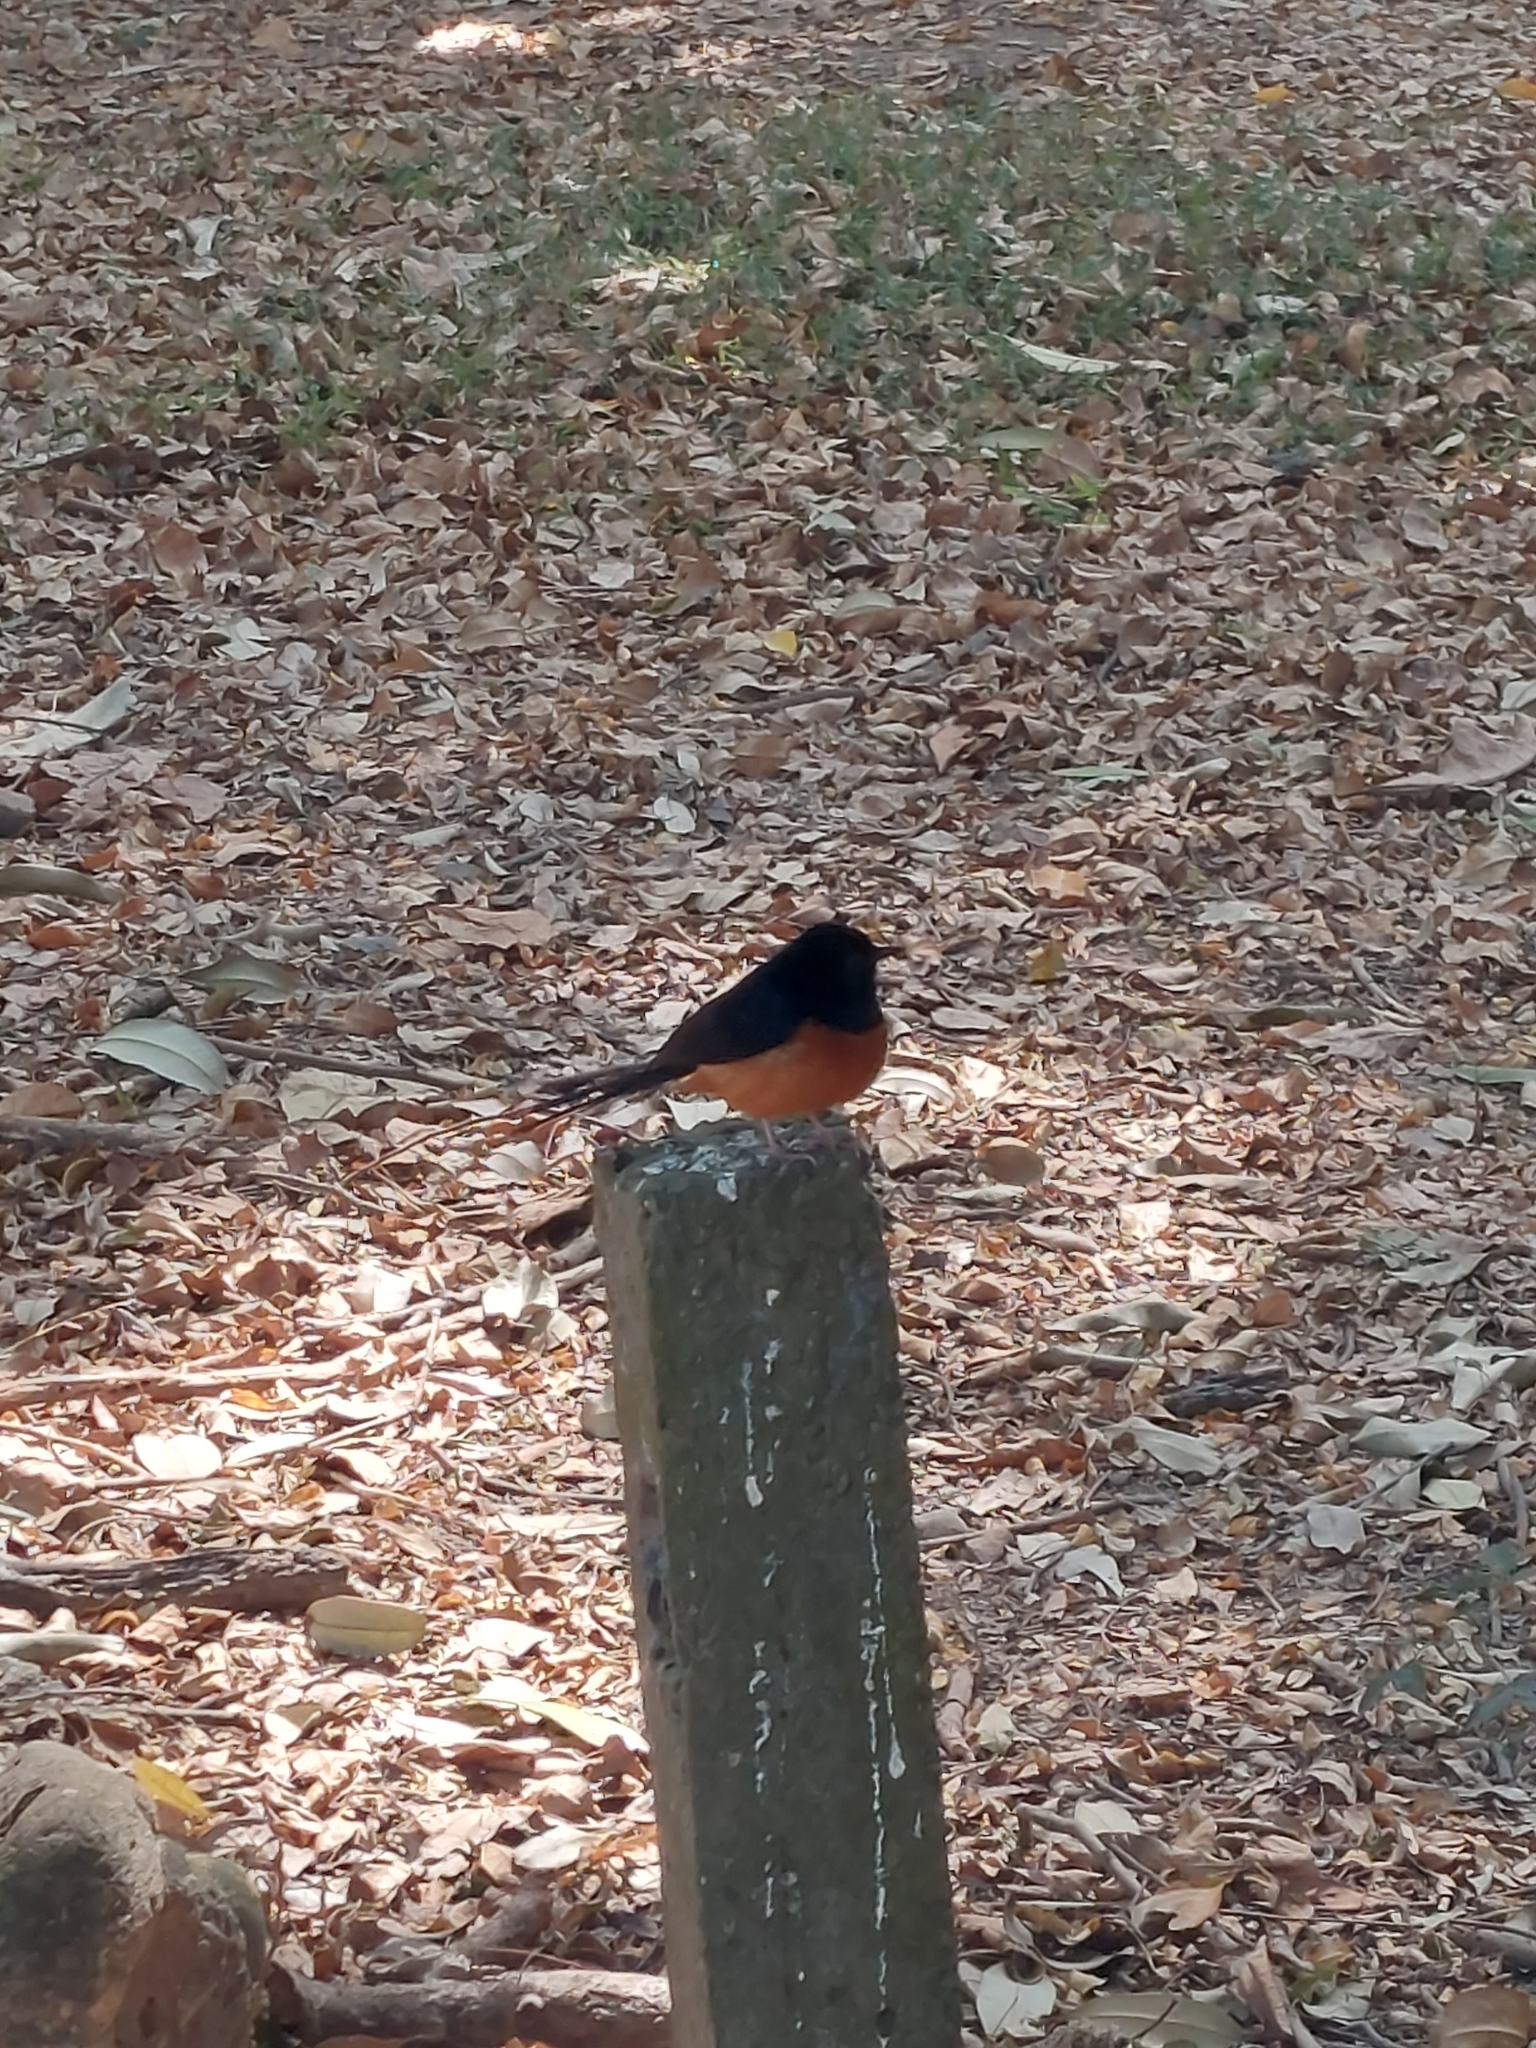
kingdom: Animalia
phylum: Chordata
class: Aves
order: Passeriformes
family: Muscicapidae
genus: Copsychus
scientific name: Copsychus malabaricus
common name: White-rumped shama
